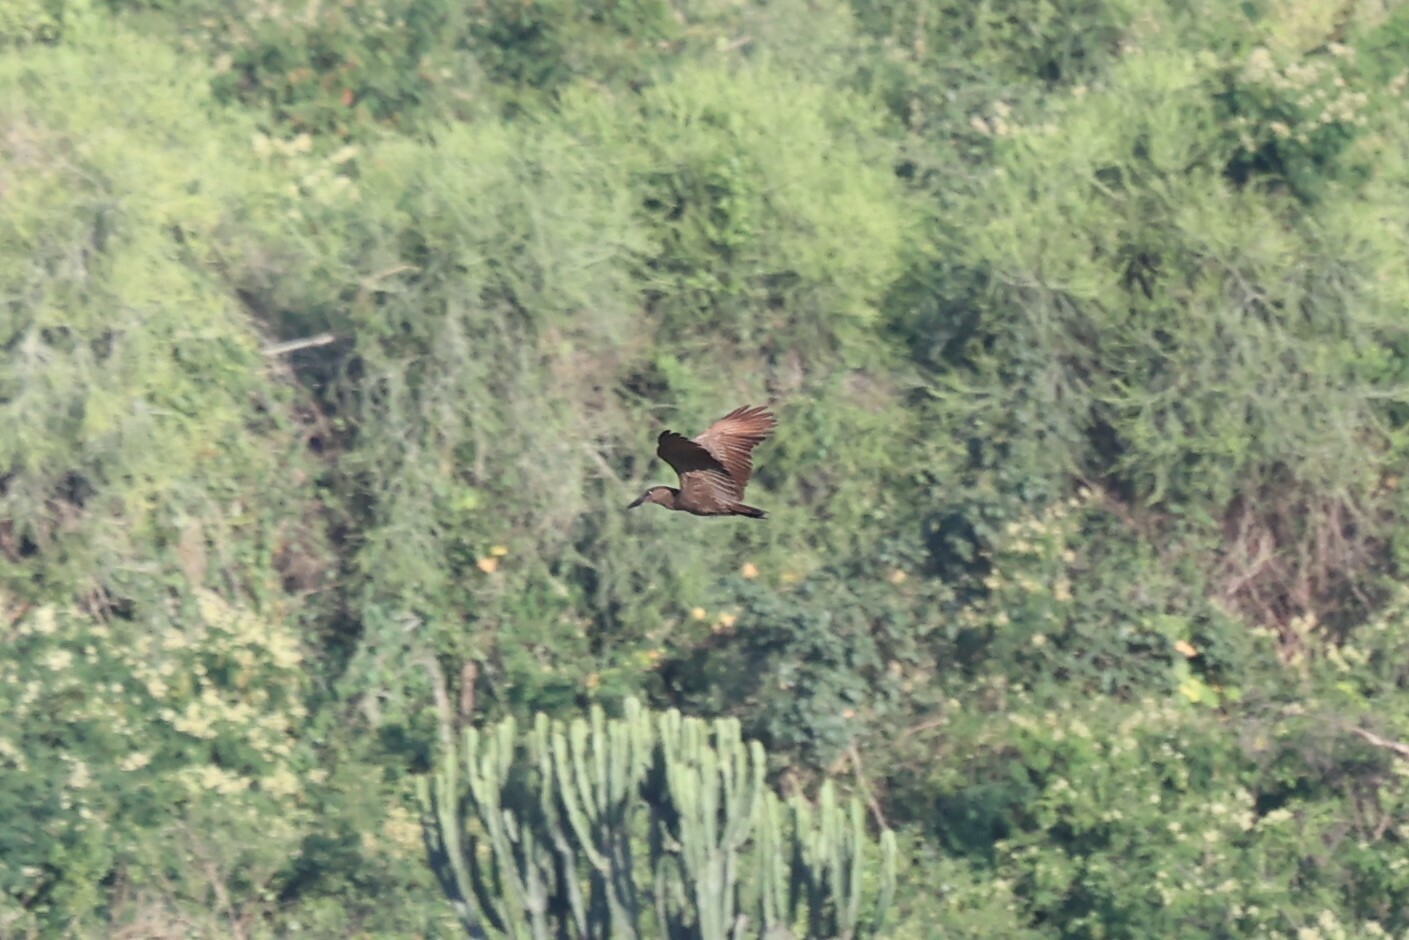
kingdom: Animalia
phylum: Chordata
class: Aves
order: Pelecaniformes
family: Scopidae
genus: Scopus
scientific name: Scopus umbretta
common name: Hamerkop
